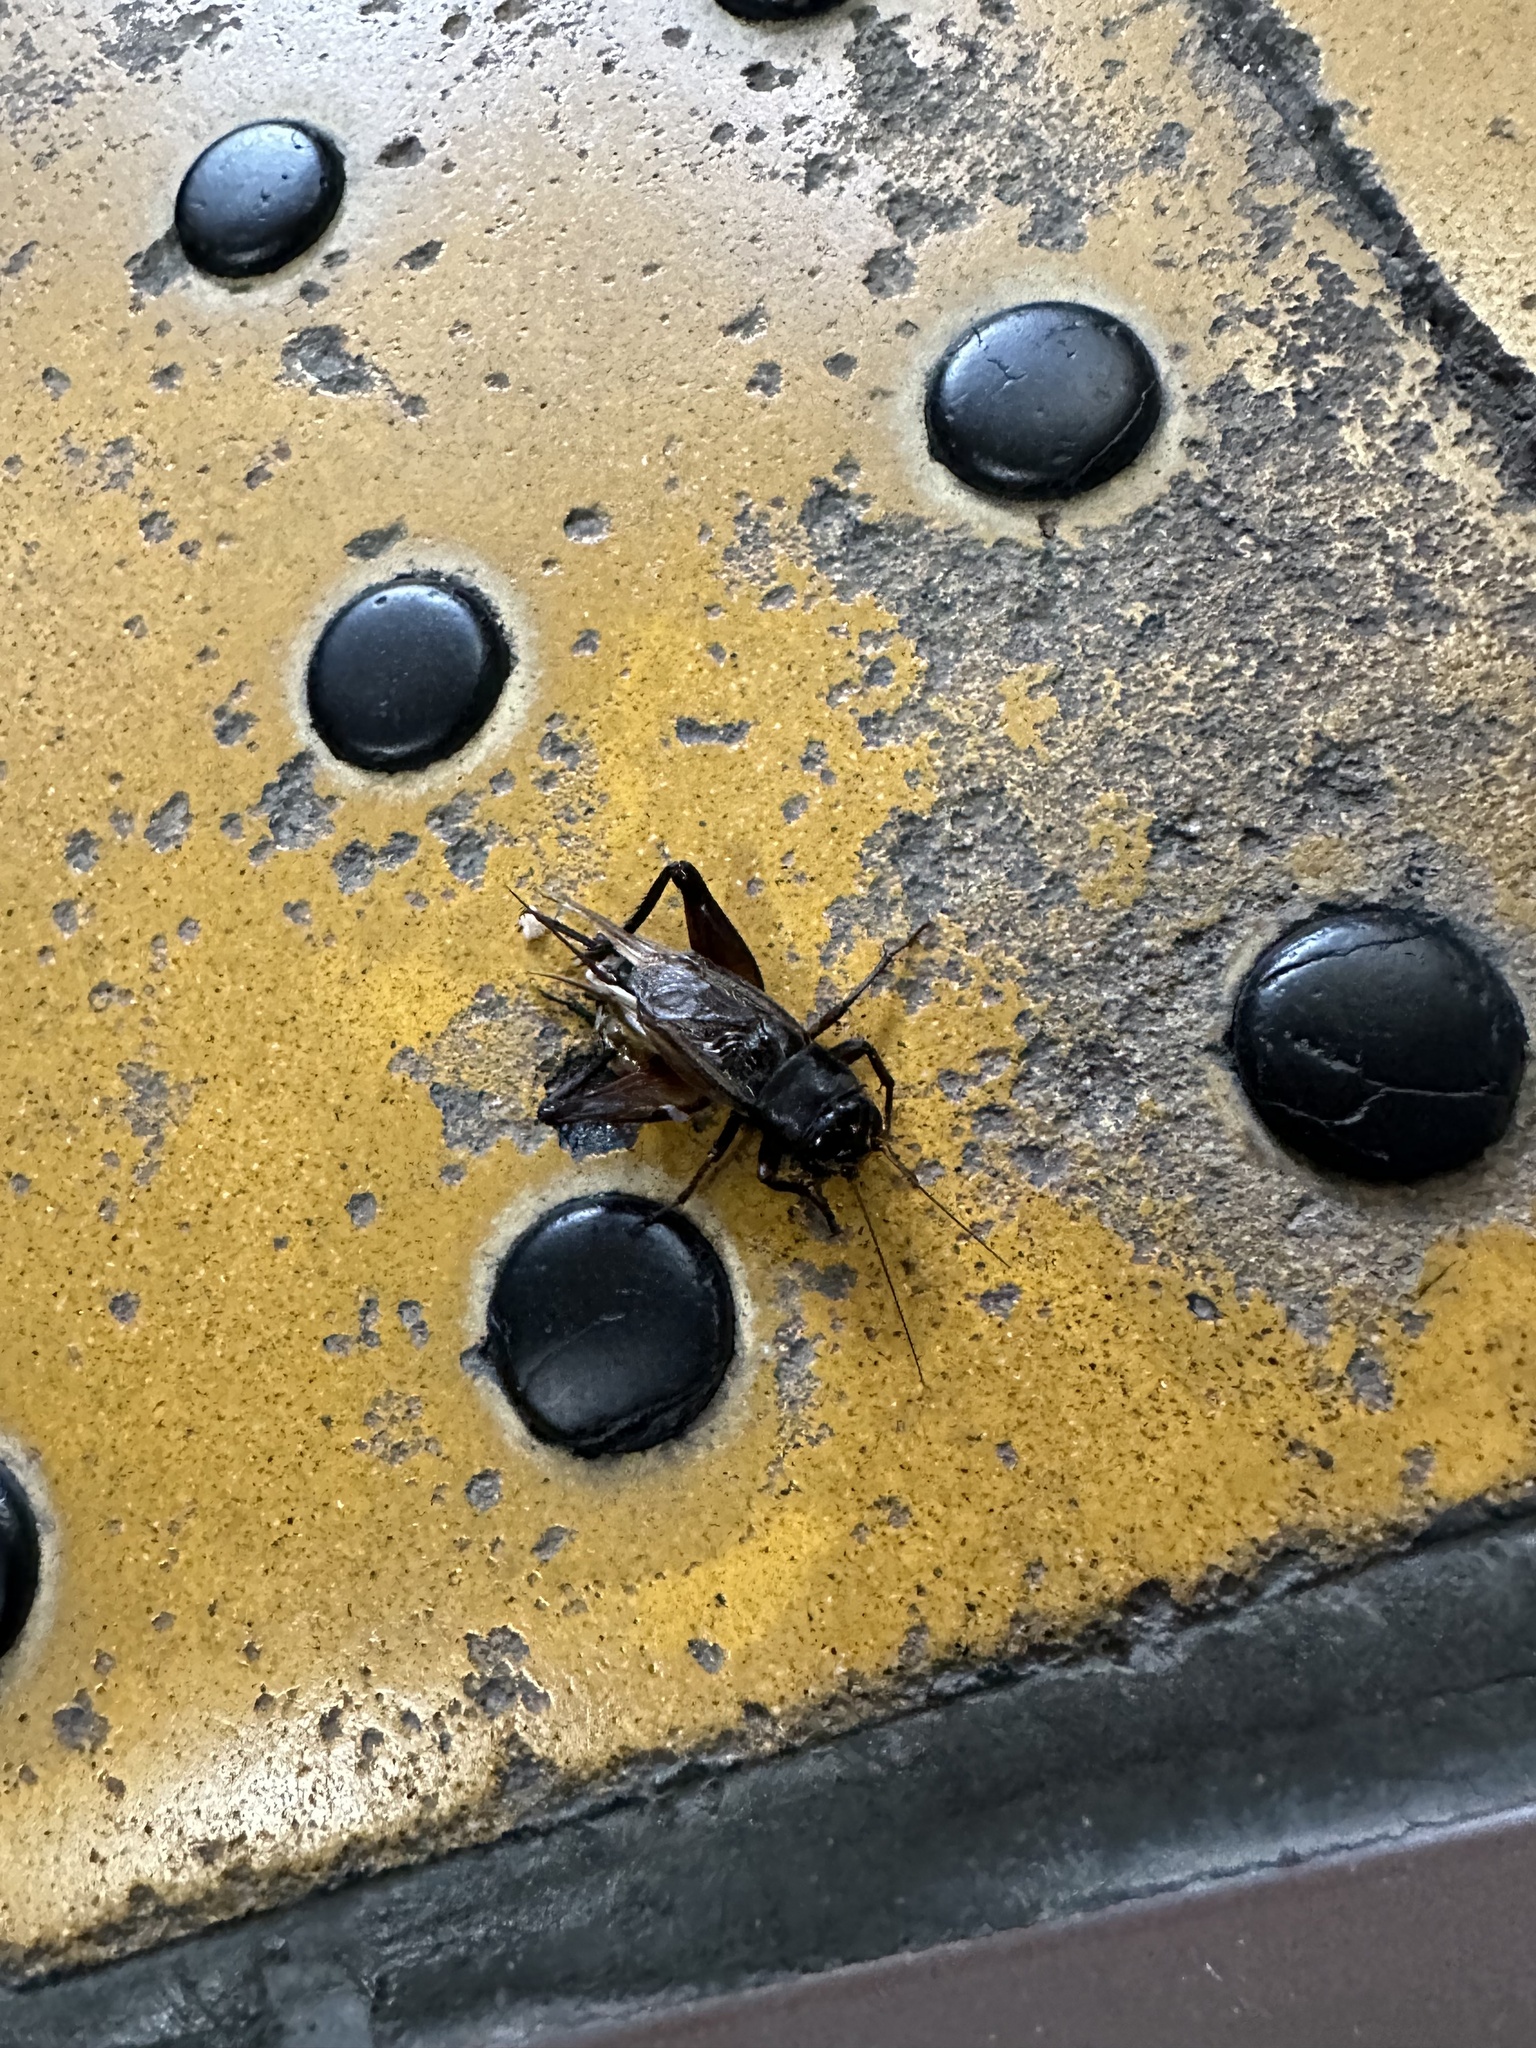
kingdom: Animalia
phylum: Arthropoda
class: Insecta
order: Orthoptera
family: Gryllidae
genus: Teleogryllus
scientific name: Teleogryllus emma
